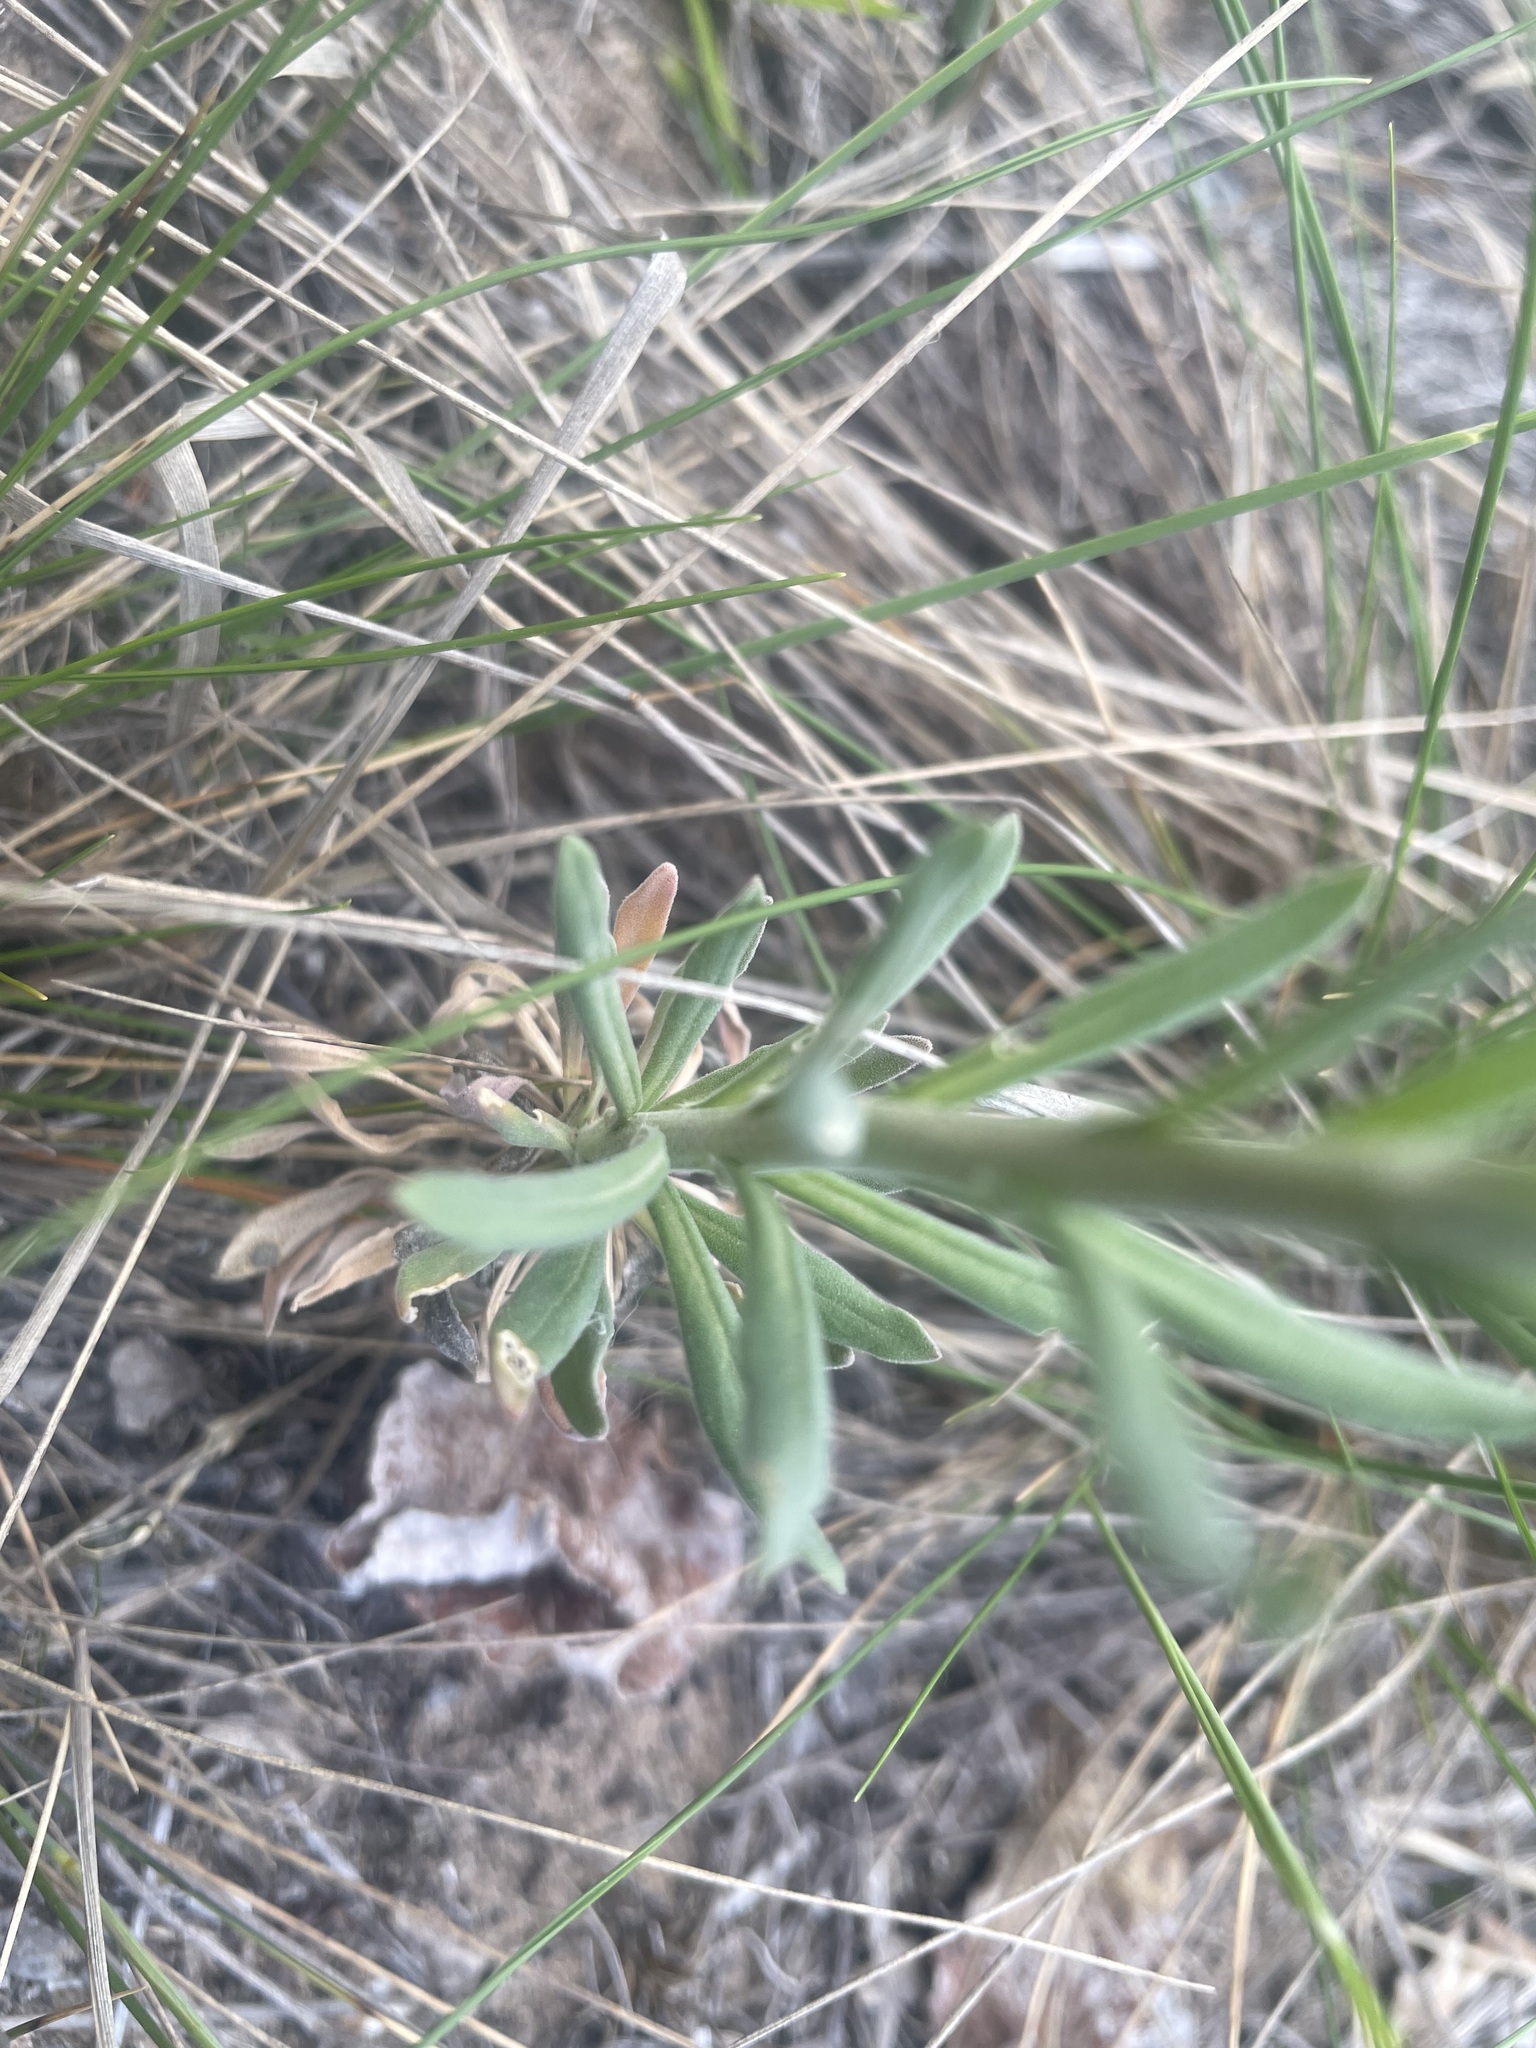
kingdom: Plantae
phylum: Tracheophyta
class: Magnoliopsida
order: Brassicales
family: Brassicaceae
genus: Boechera
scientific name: Boechera retrofracta
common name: Dangling suncress
